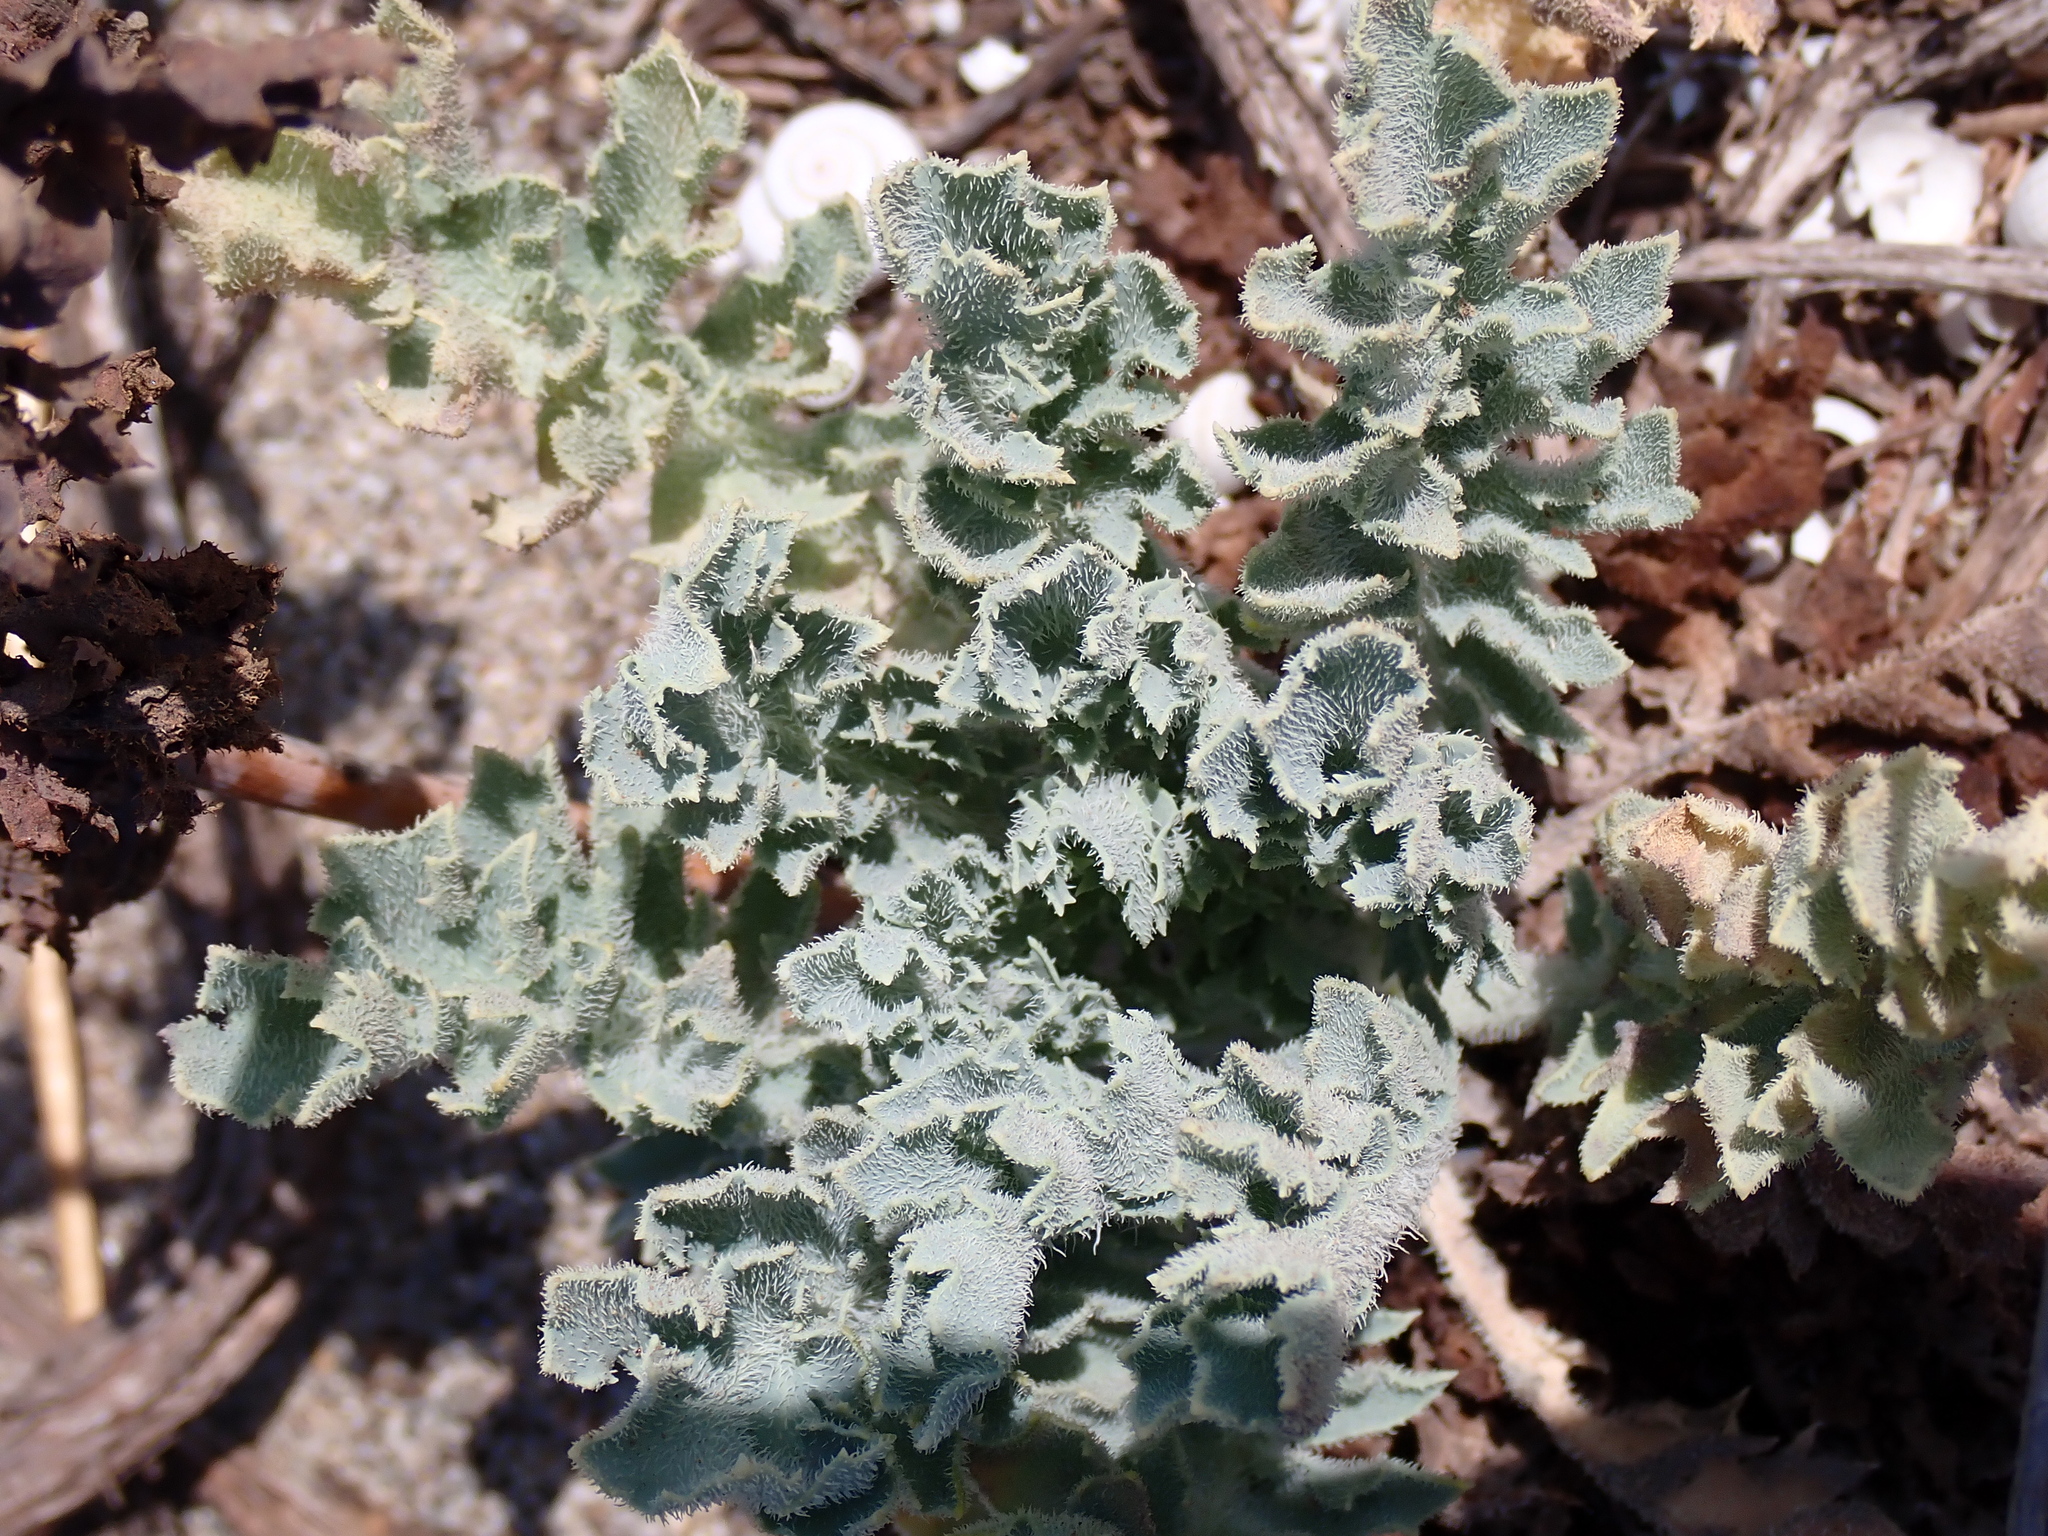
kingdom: Plantae
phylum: Tracheophyta
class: Magnoliopsida
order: Ranunculales
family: Papaveraceae
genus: Glaucium
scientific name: Glaucium flavum
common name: Yellow horned-poppy
